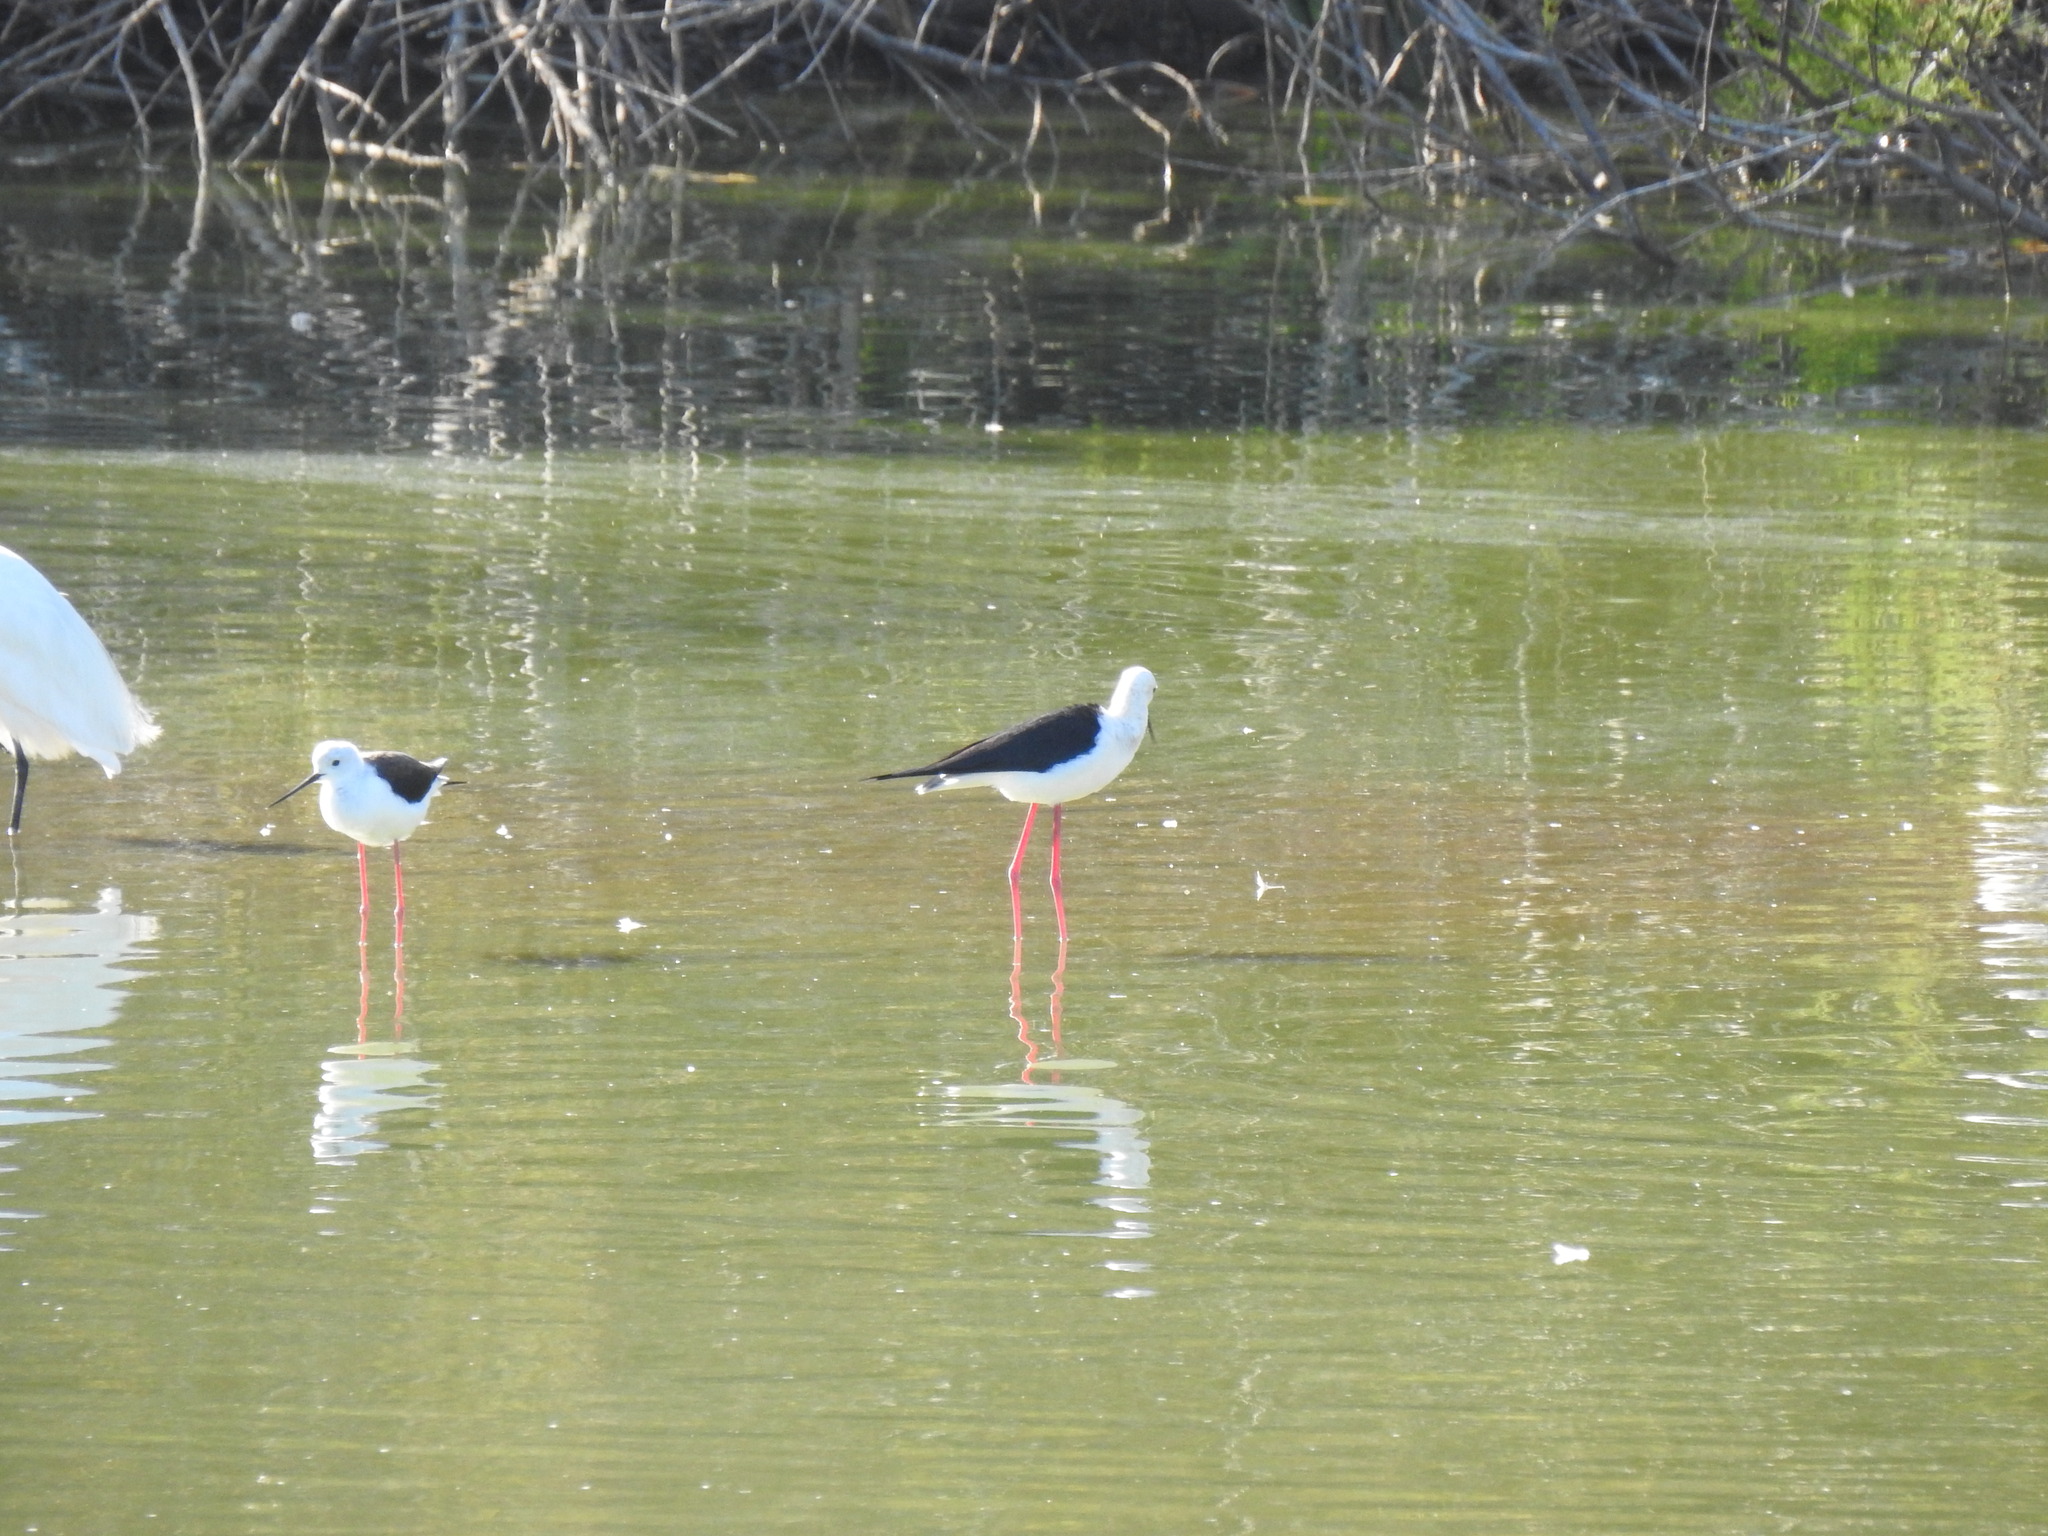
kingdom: Animalia
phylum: Chordata
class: Aves
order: Charadriiformes
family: Recurvirostridae
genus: Himantopus
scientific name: Himantopus himantopus
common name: Black-winged stilt
